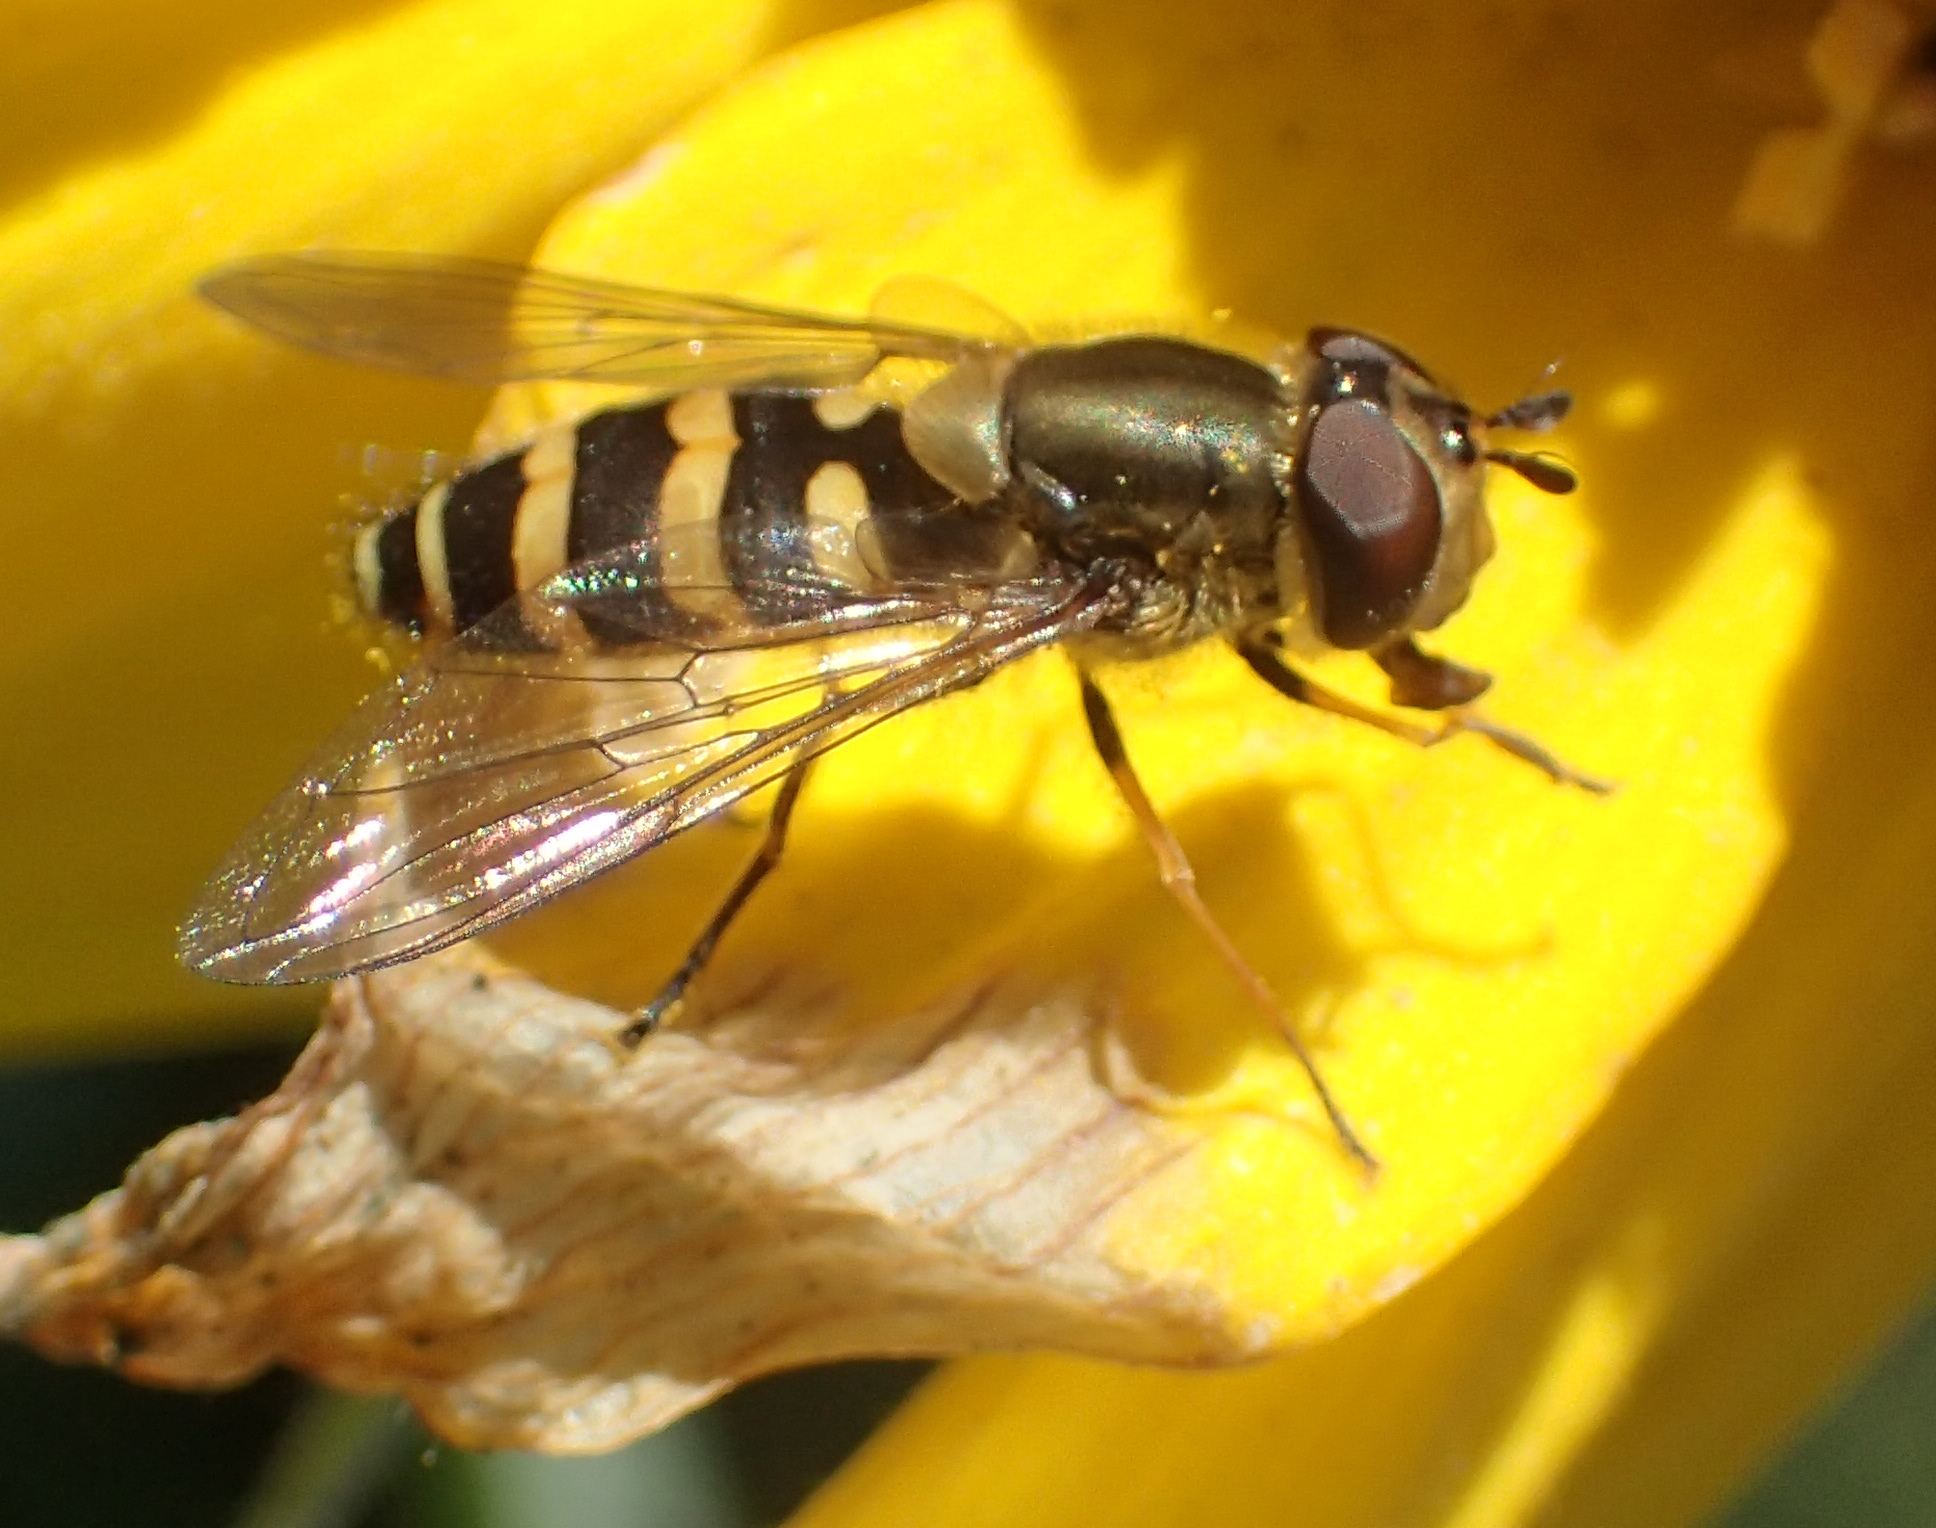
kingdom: Animalia
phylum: Arthropoda
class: Insecta
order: Diptera
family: Syrphidae
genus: Syrphus
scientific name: Syrphus torvus
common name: Hairy-eyed flower fly
